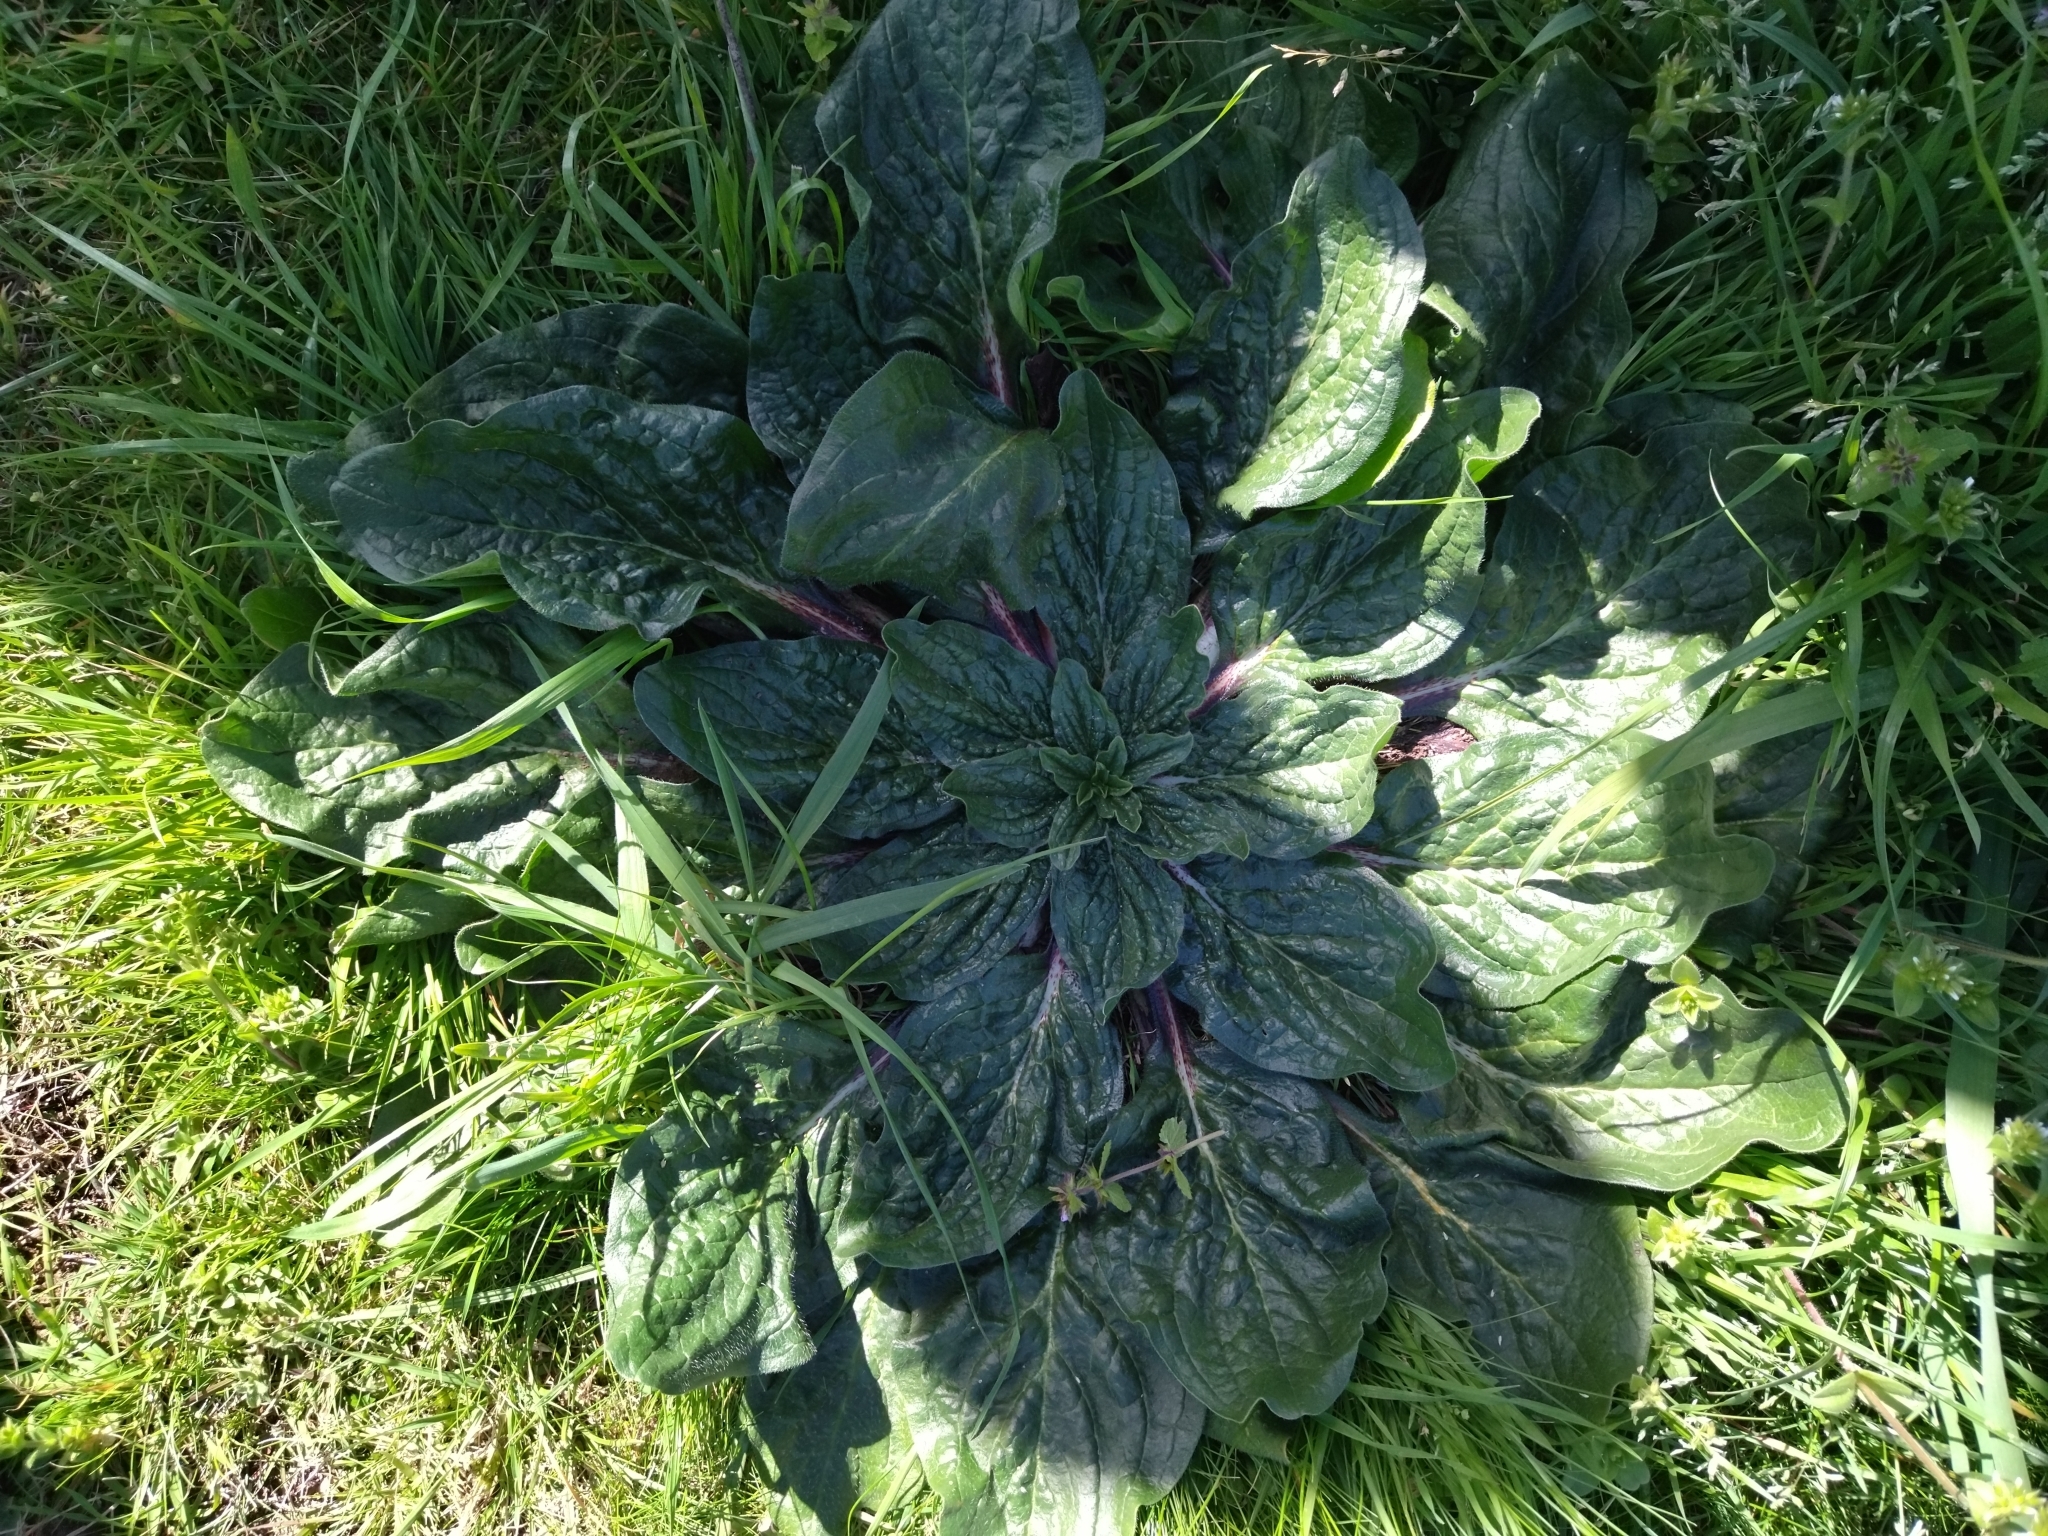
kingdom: Plantae
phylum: Tracheophyta
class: Magnoliopsida
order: Boraginales
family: Boraginaceae
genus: Echium
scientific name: Echium plantagineum
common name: Purple viper's-bugloss
